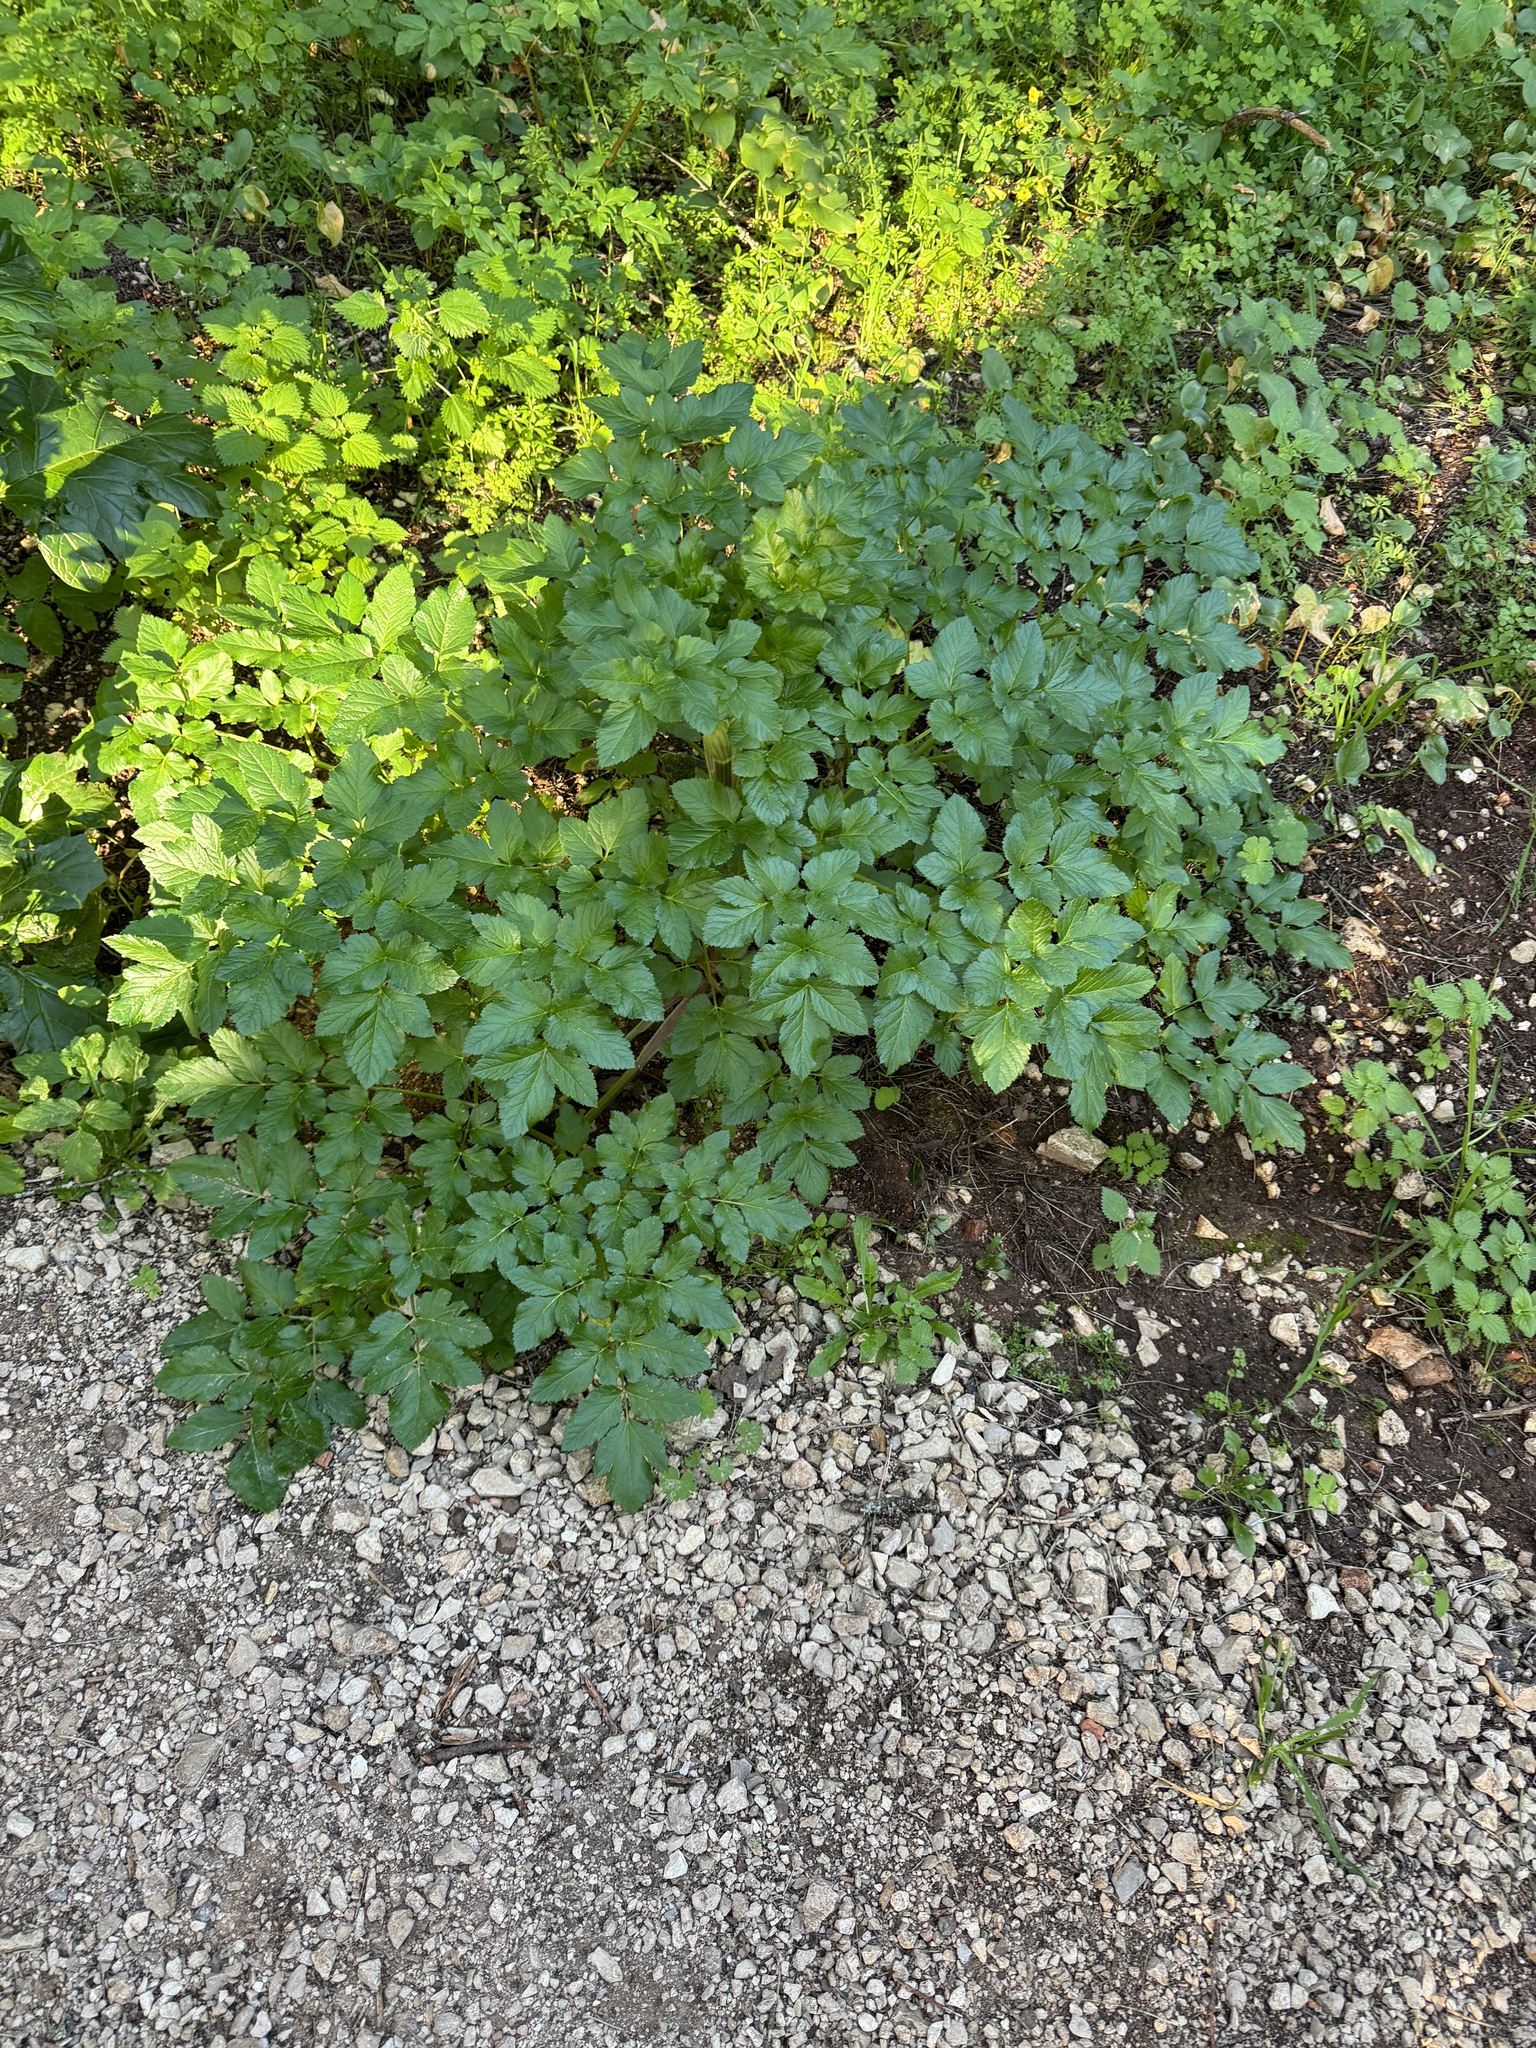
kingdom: Plantae
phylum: Tracheophyta
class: Magnoliopsida
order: Apiales
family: Apiaceae
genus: Smyrnium
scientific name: Smyrnium olusatrum
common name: Alexanders
